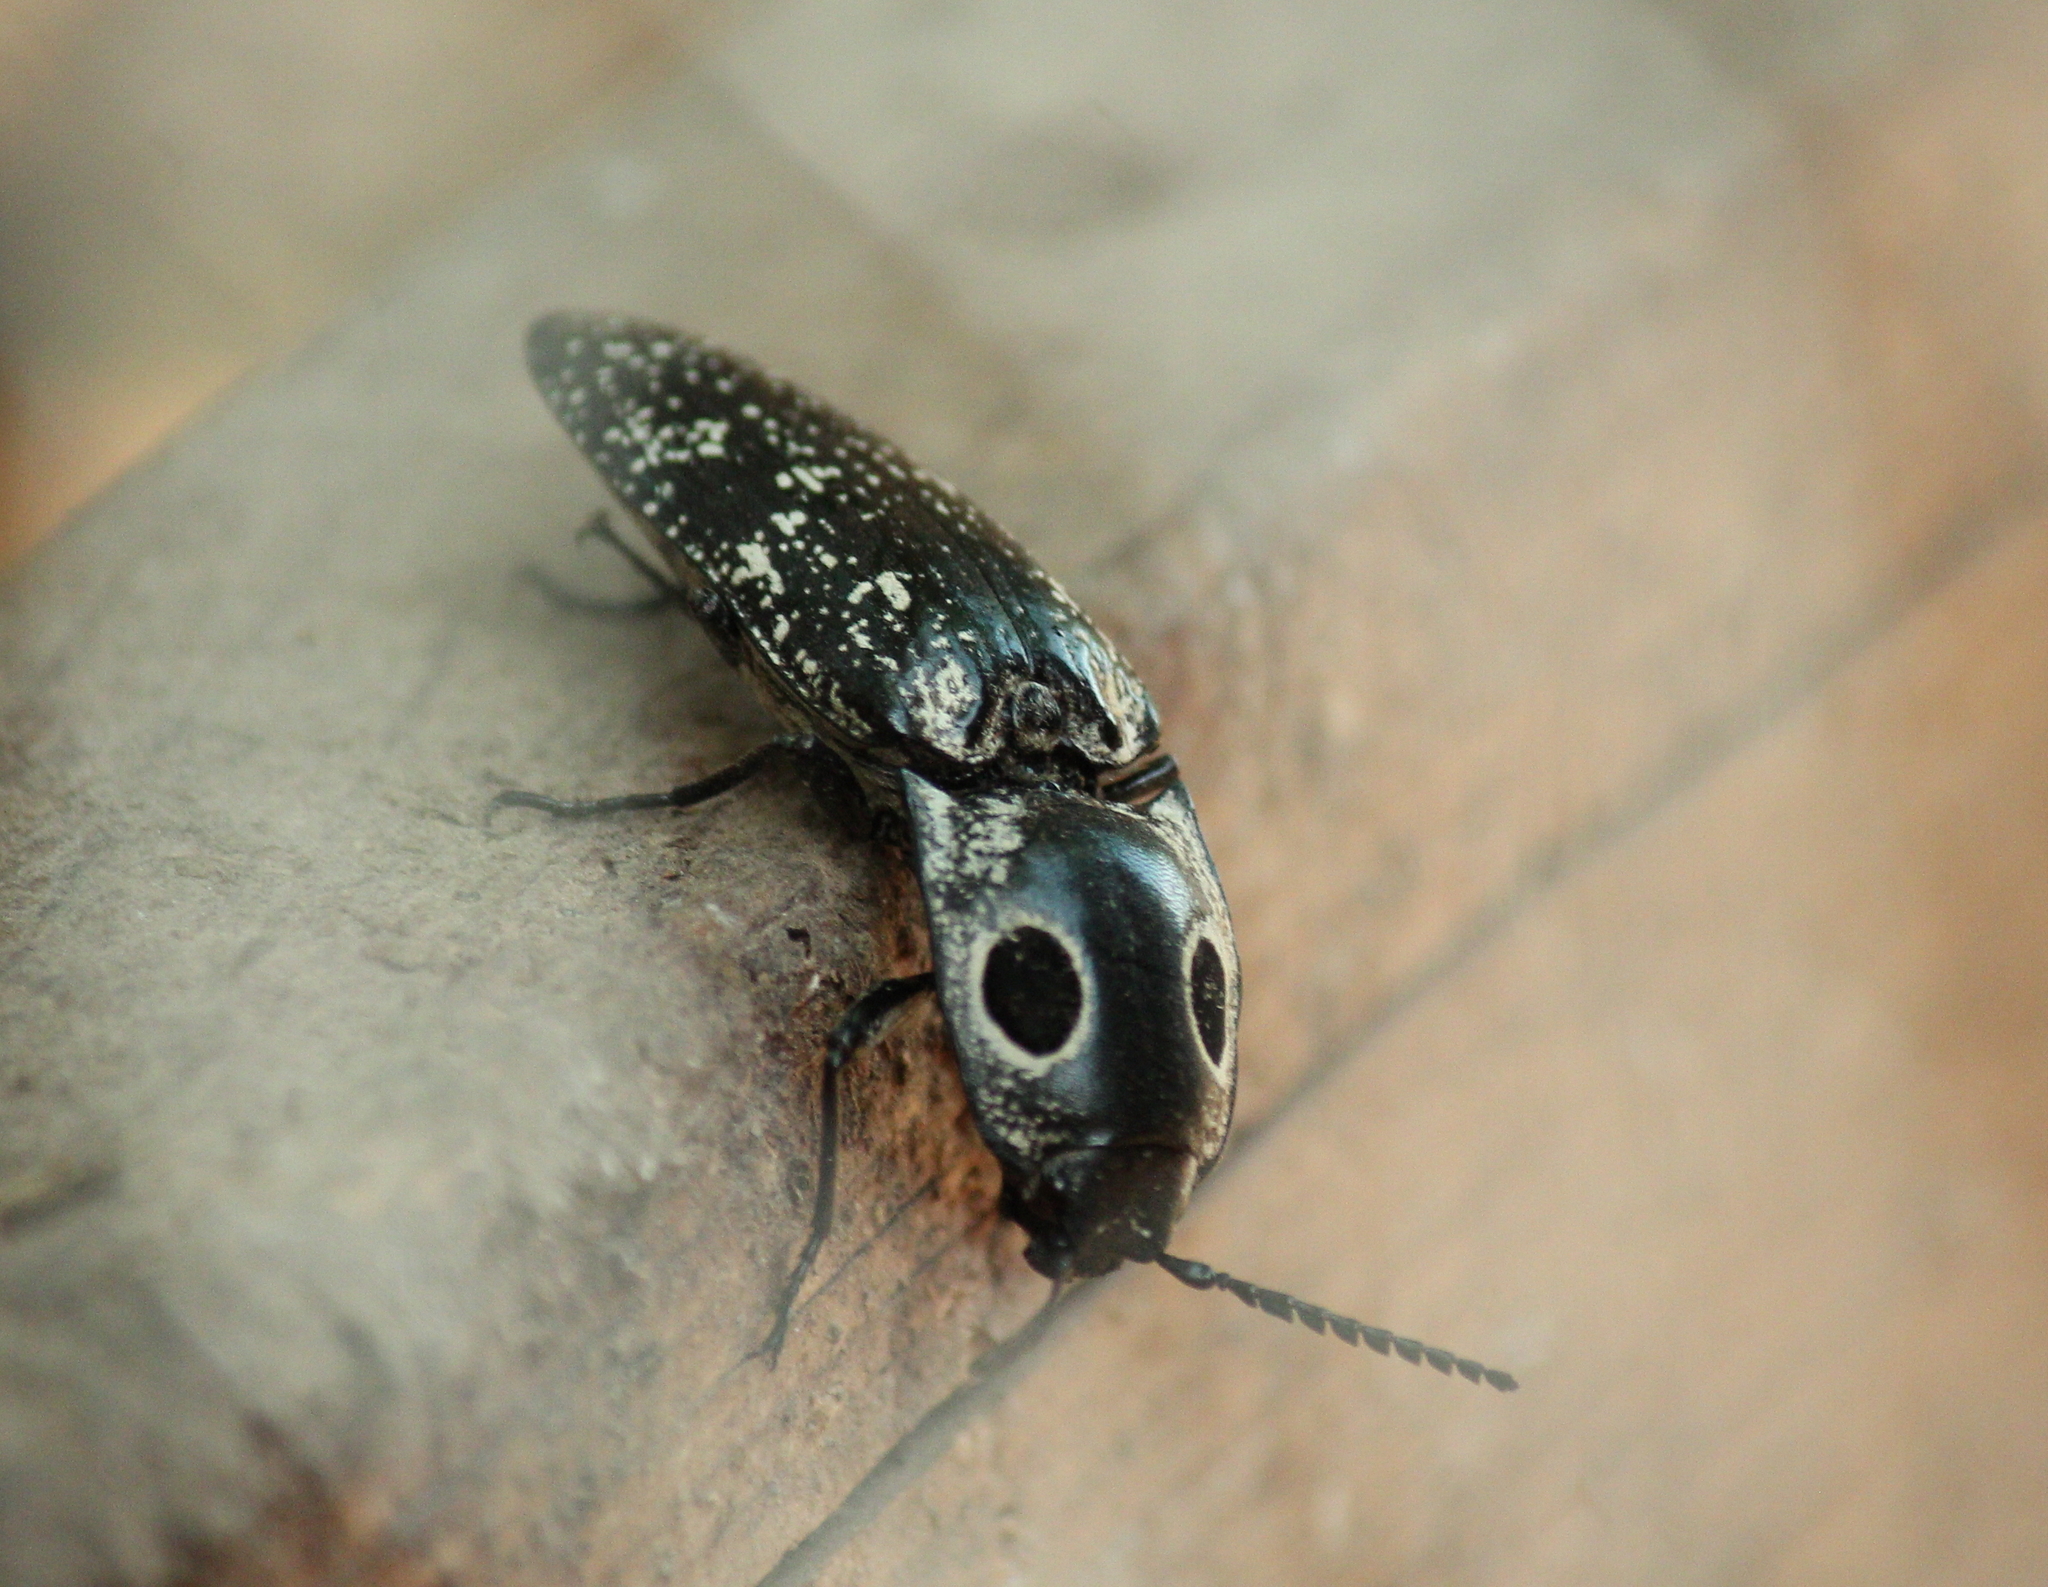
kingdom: Animalia
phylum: Arthropoda
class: Insecta
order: Coleoptera
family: Elateridae
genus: Alaus
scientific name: Alaus oculatus
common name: Eastern eyed click beetle
